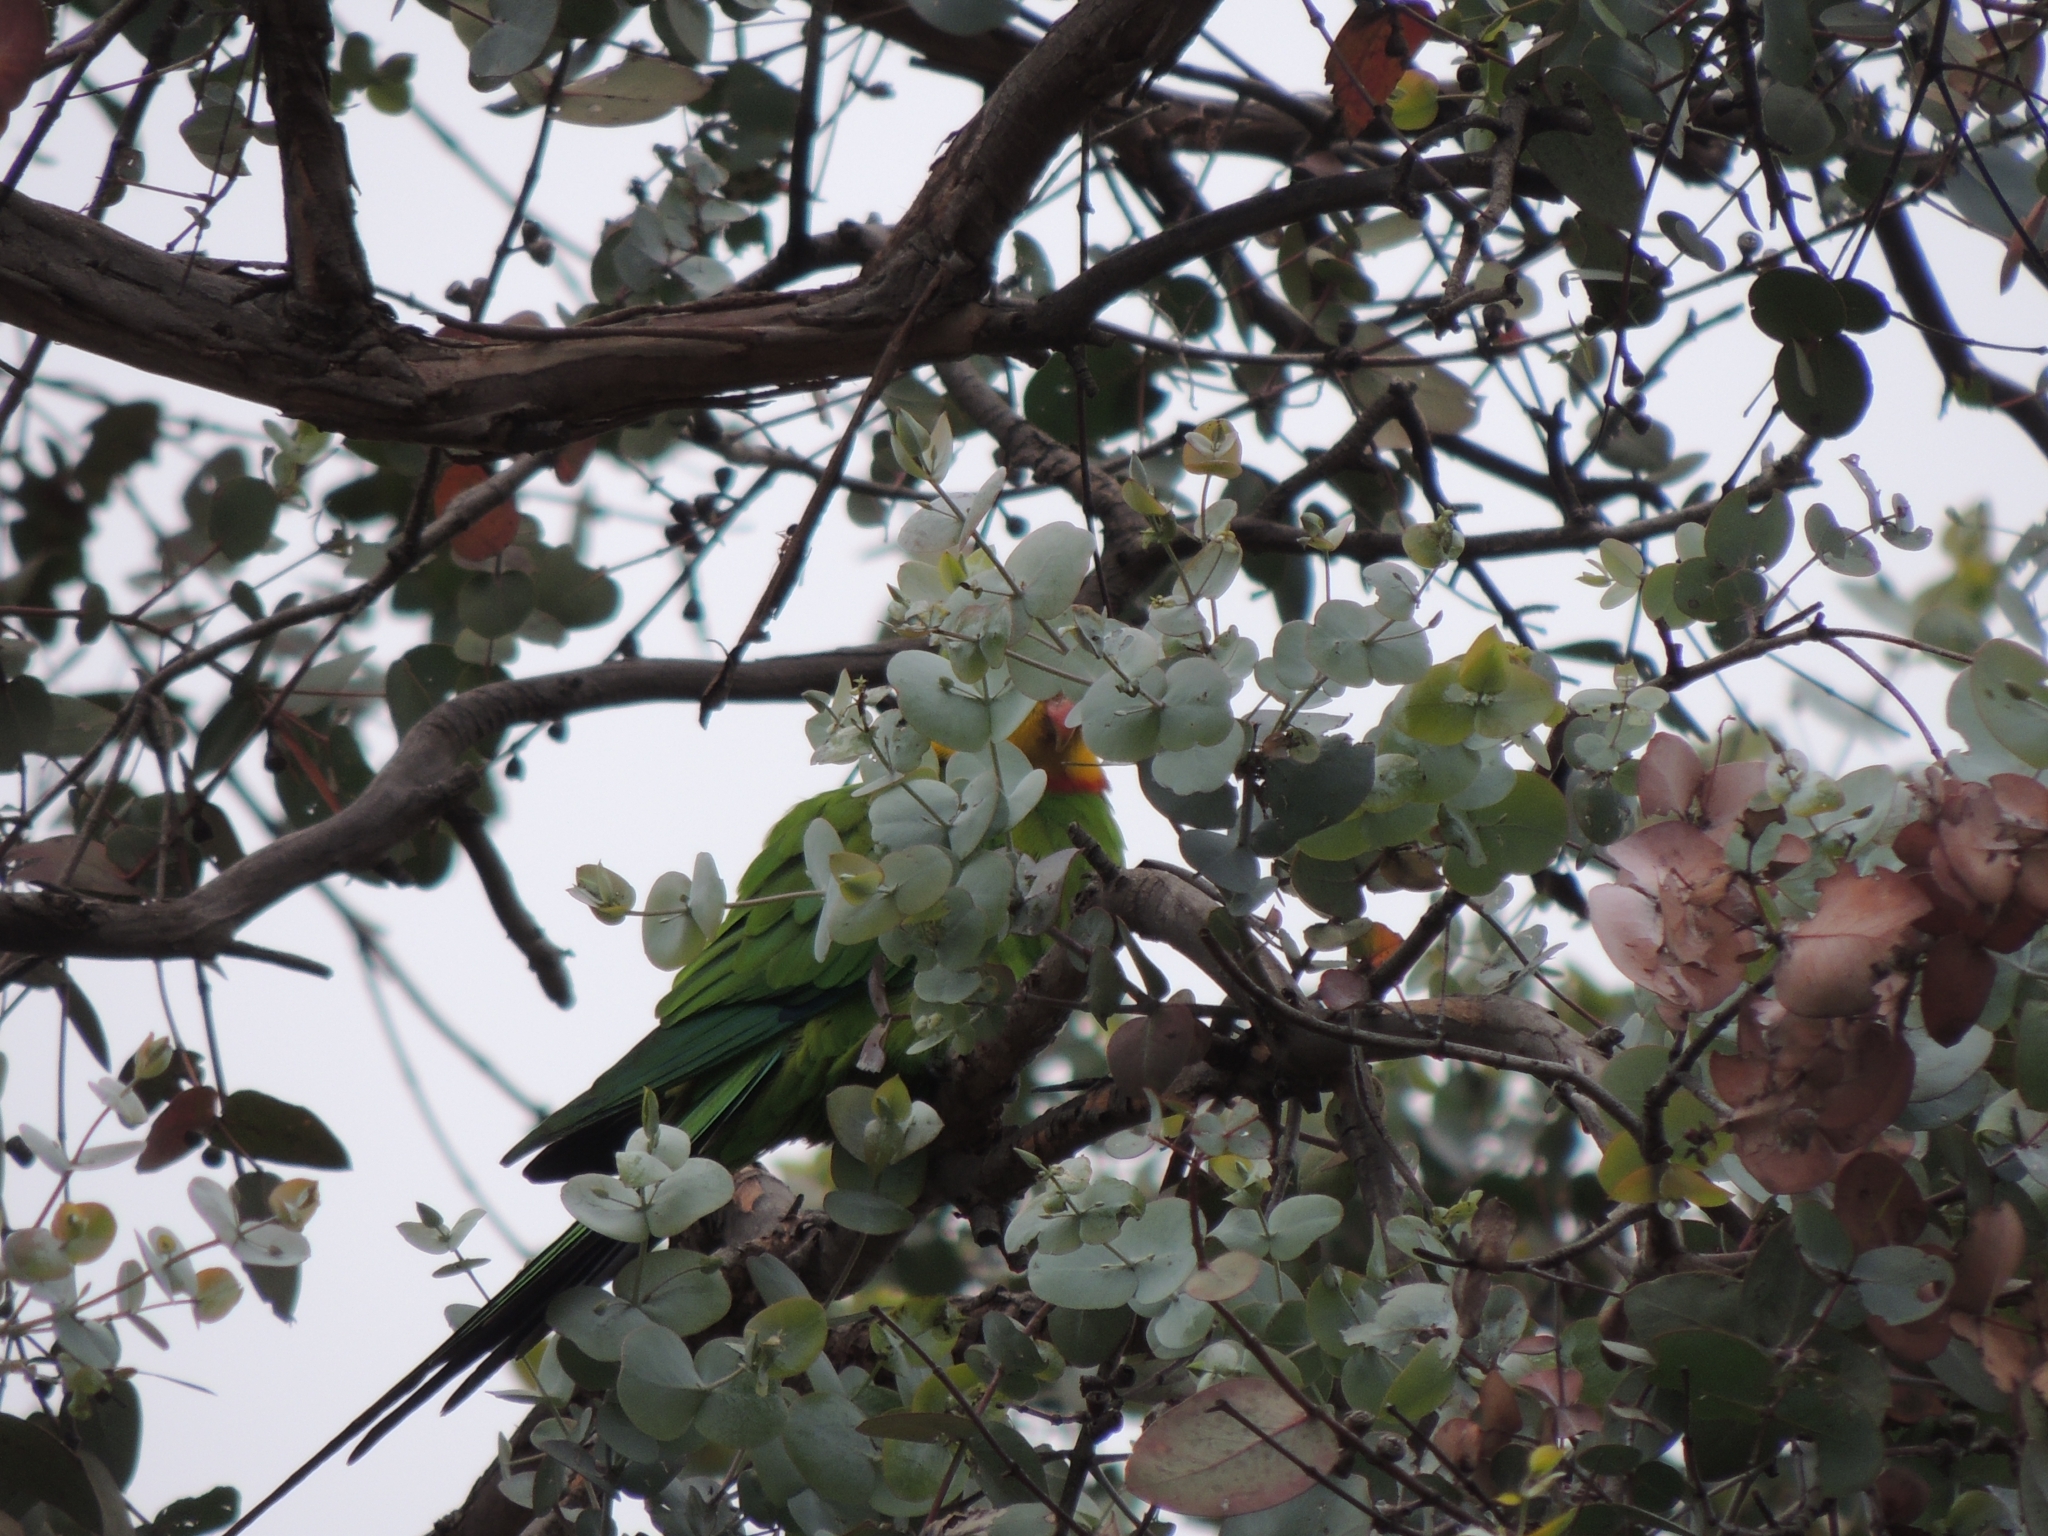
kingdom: Animalia
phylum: Chordata
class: Aves
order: Psittaciformes
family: Psittacidae
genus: Polytelis
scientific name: Polytelis swainsonii
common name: Superb parrot
